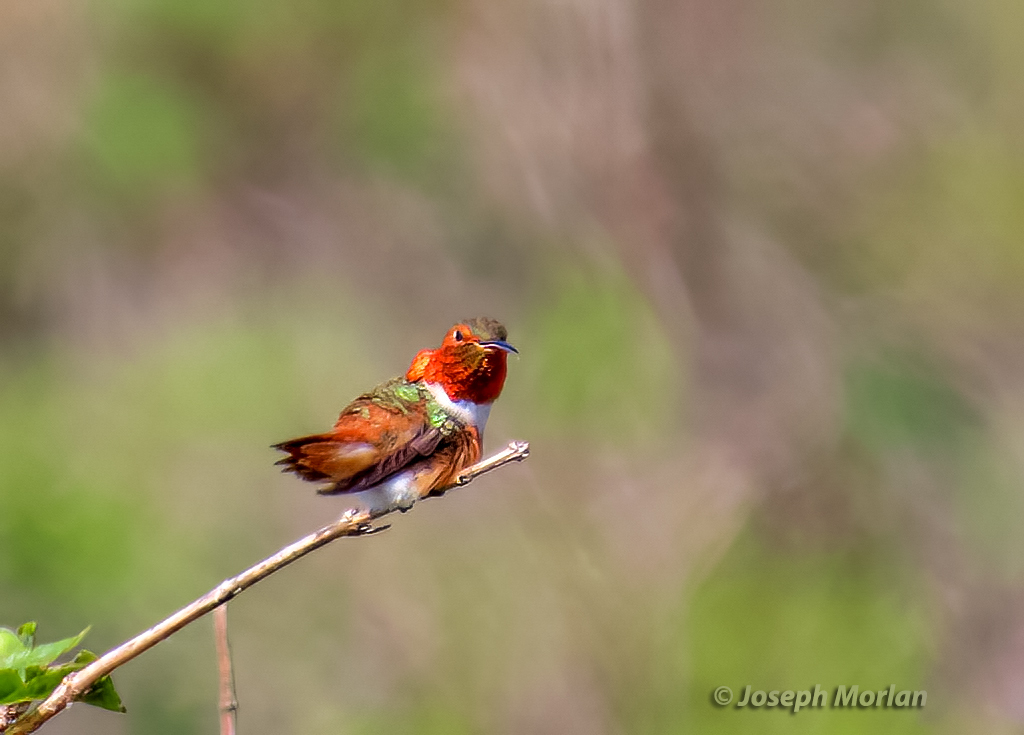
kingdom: Animalia
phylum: Chordata
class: Aves
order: Apodiformes
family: Trochilidae
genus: Selasphorus
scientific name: Selasphorus sasin
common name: Allen's hummingbird
